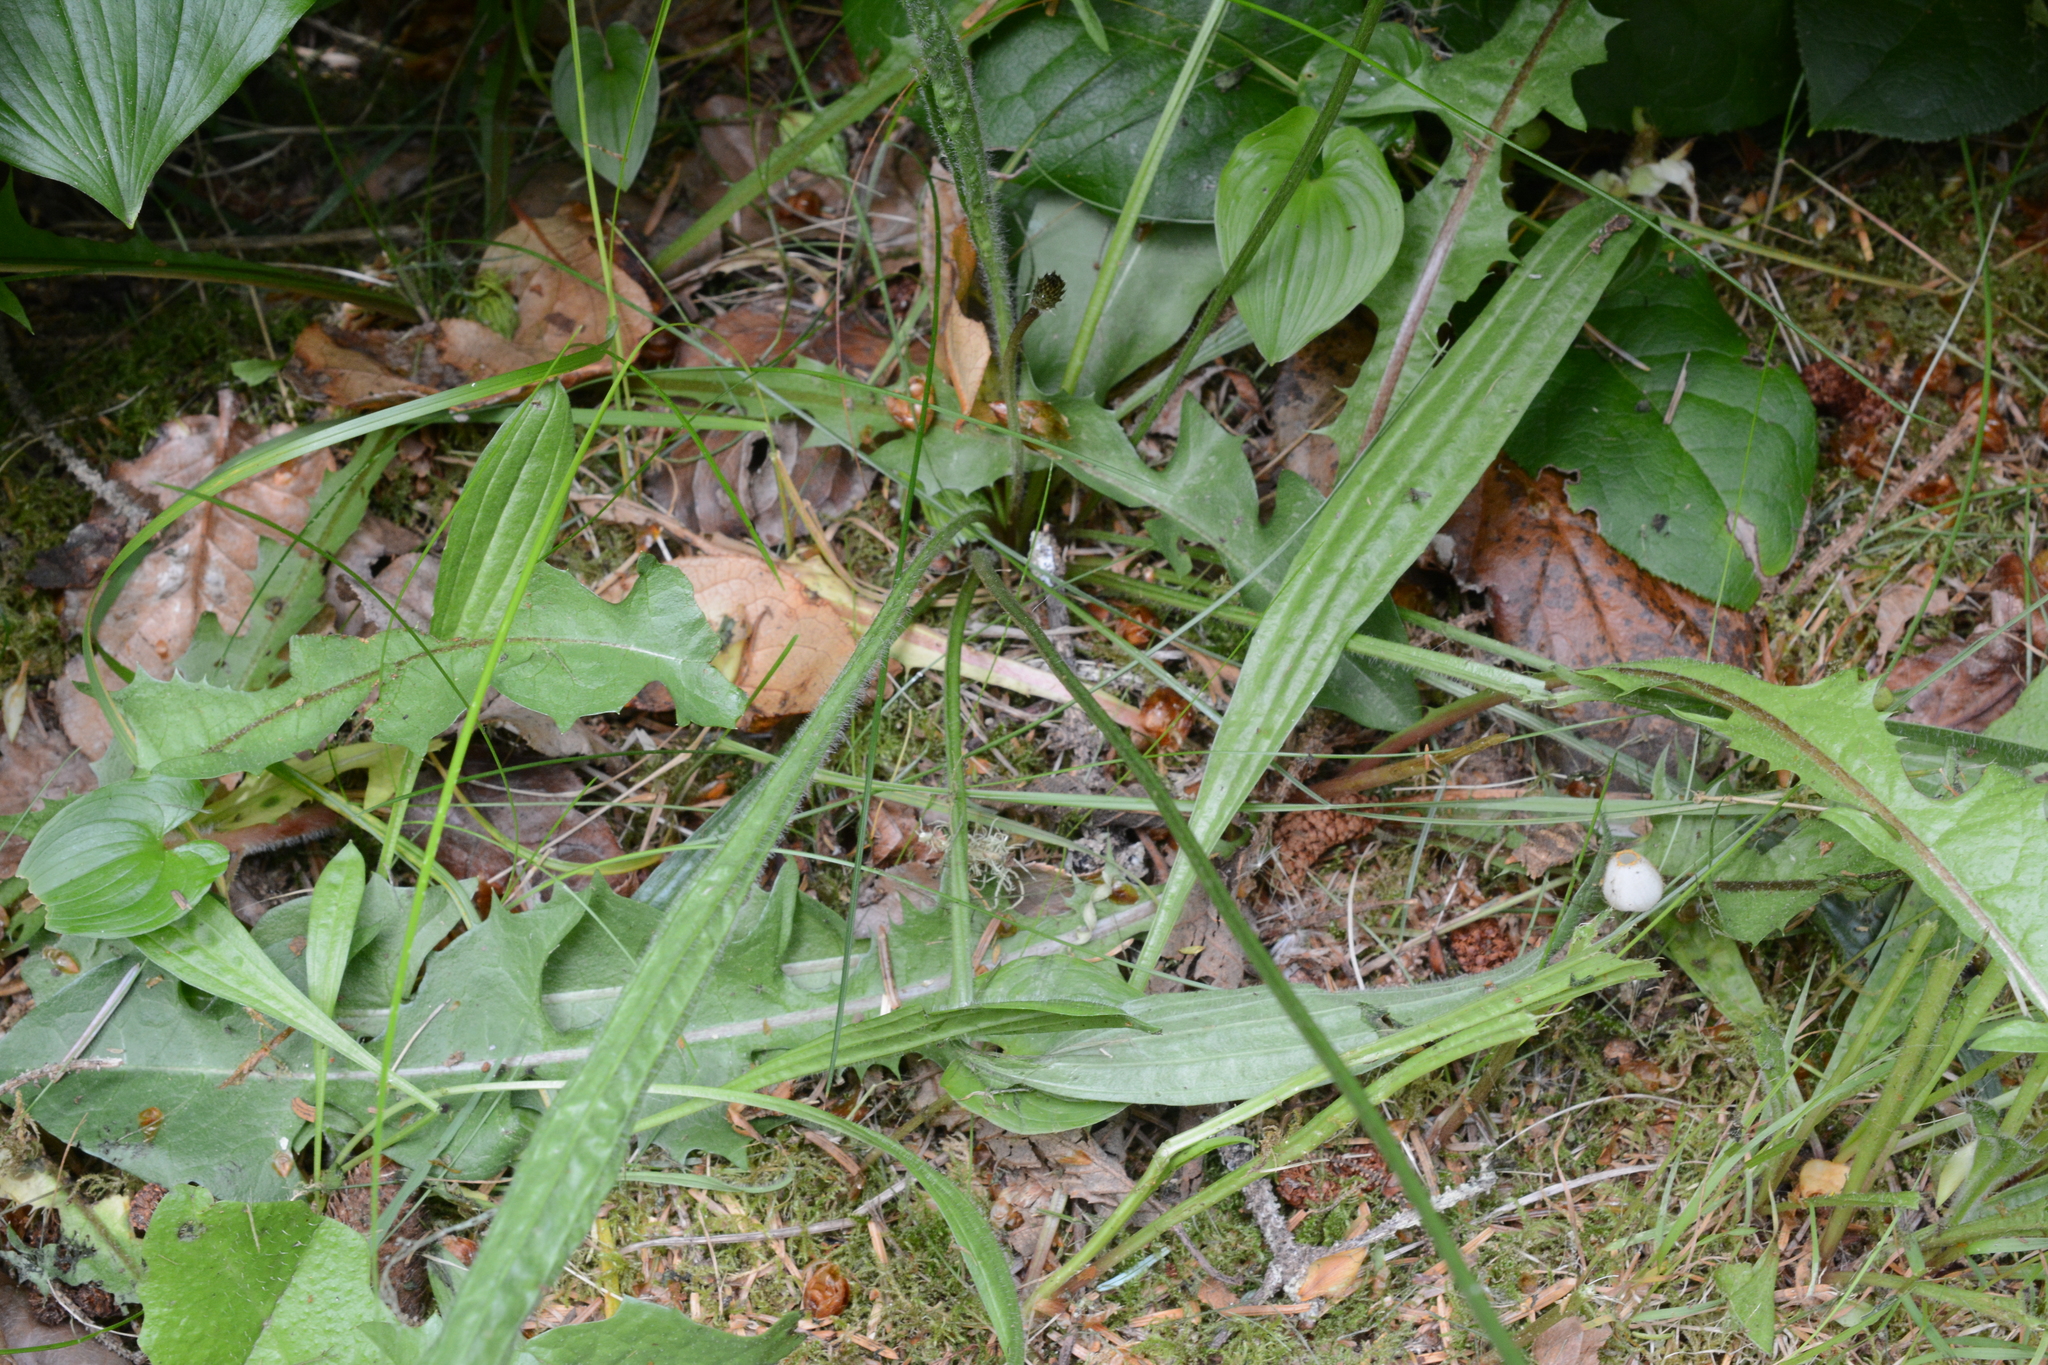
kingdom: Plantae
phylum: Tracheophyta
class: Magnoliopsida
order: Lamiales
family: Plantaginaceae
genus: Plantago
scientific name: Plantago lanceolata
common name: Ribwort plantain
